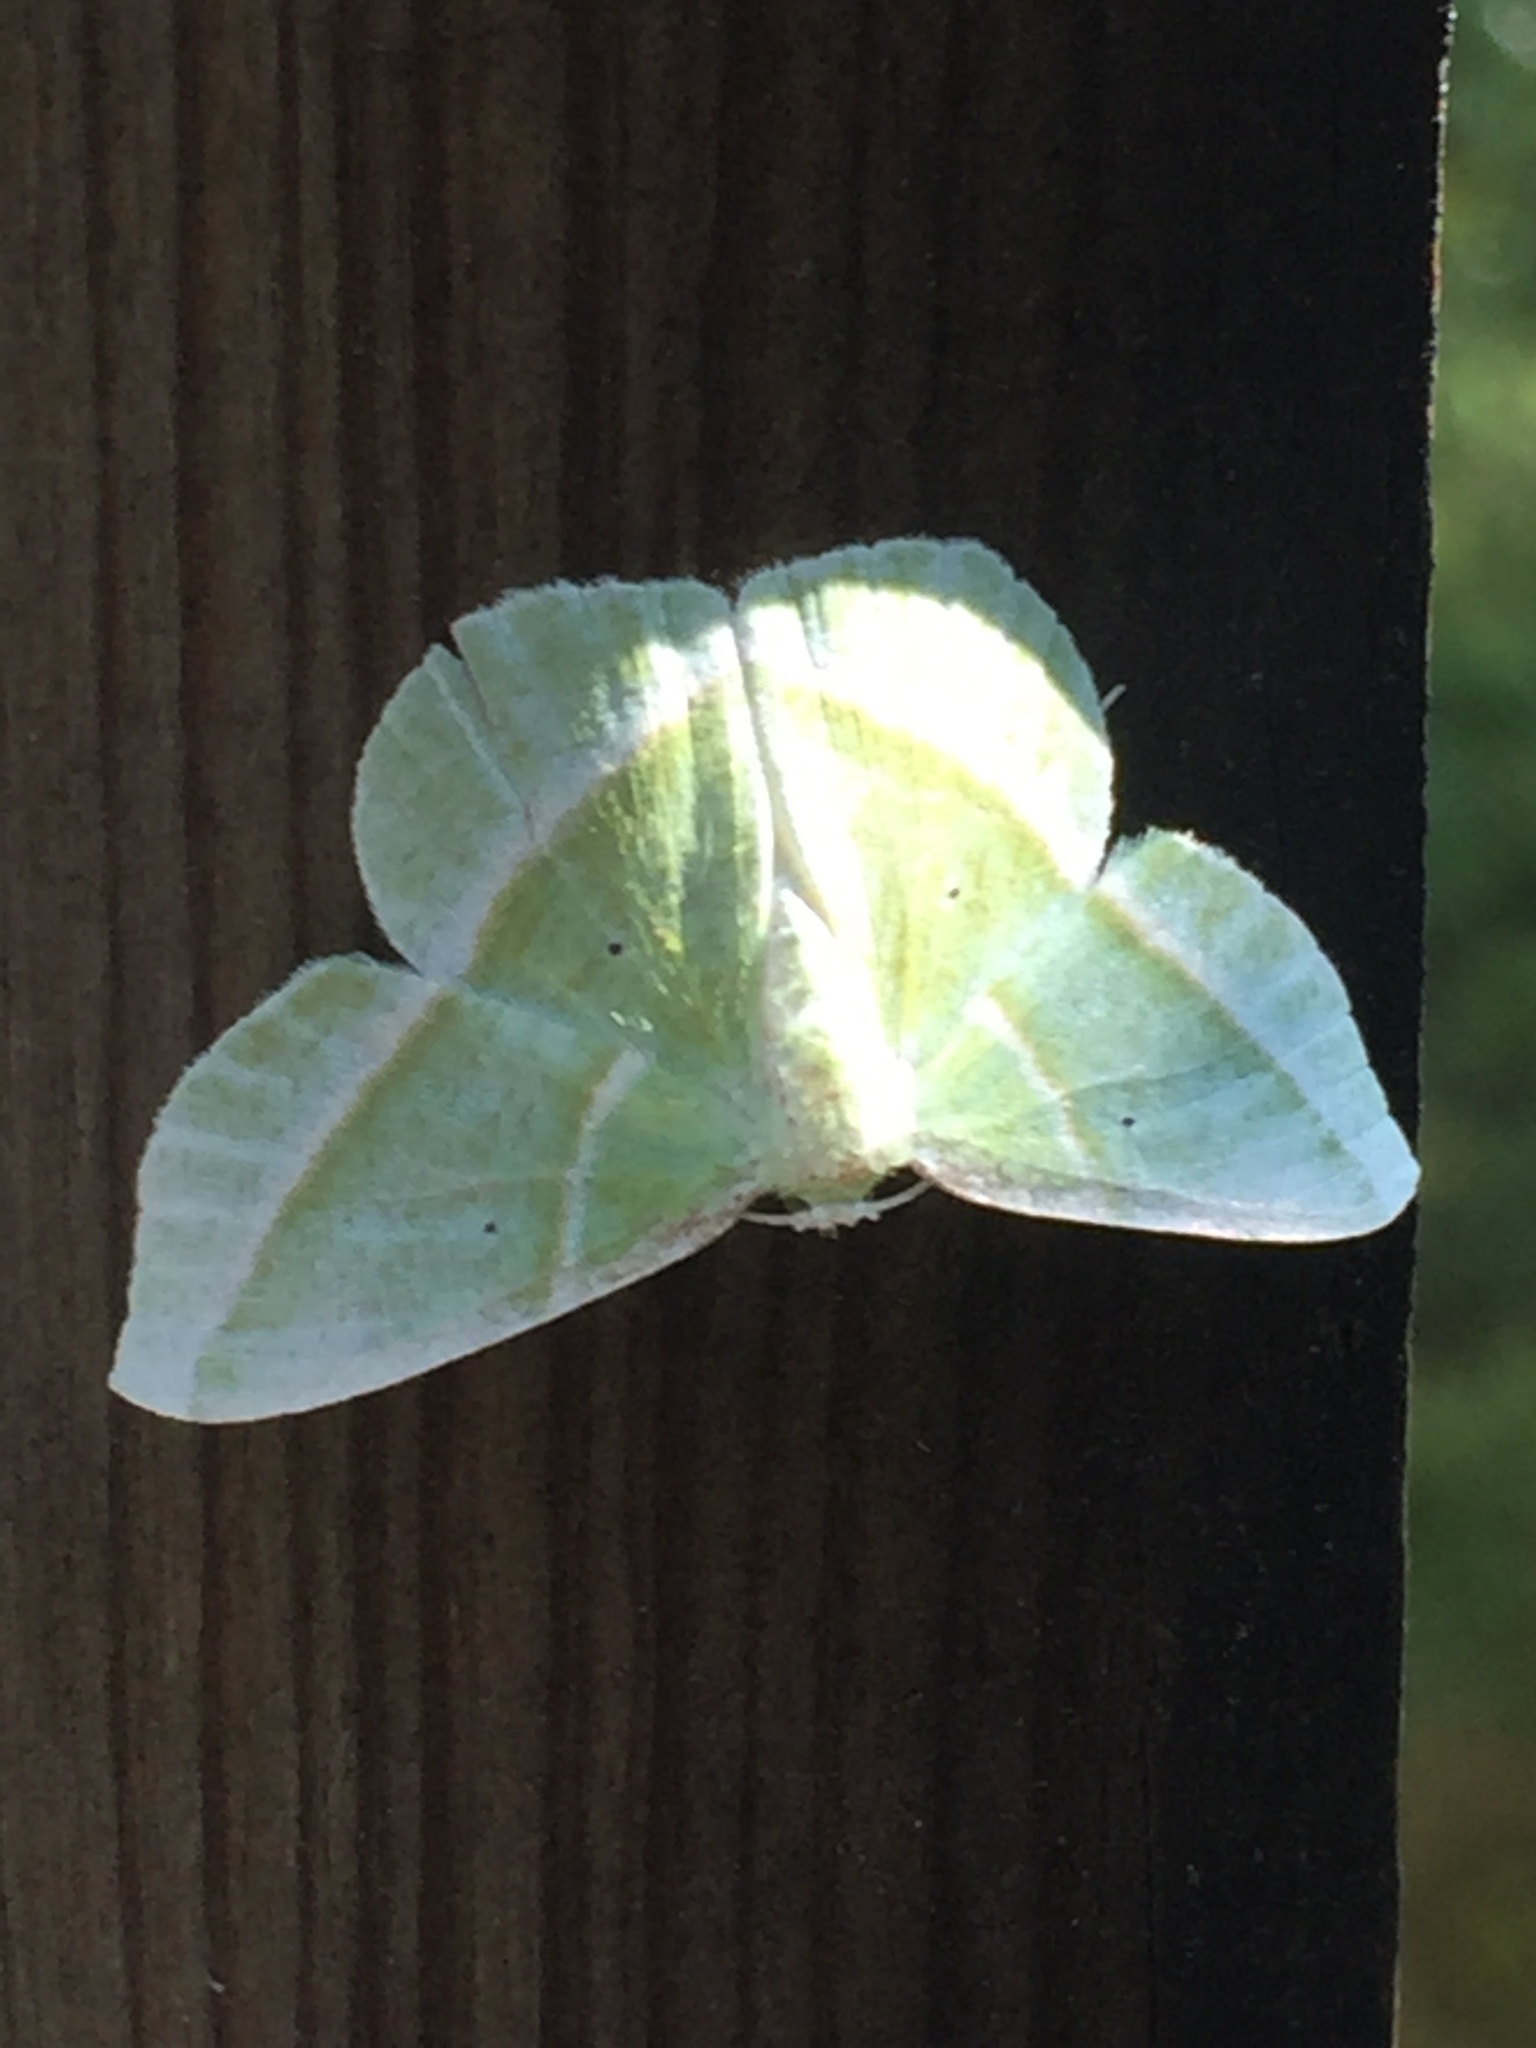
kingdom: Animalia
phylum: Arthropoda
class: Insecta
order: Lepidoptera
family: Geometridae
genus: Dichorda
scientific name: Dichorda iridaria
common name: Showy emerald
